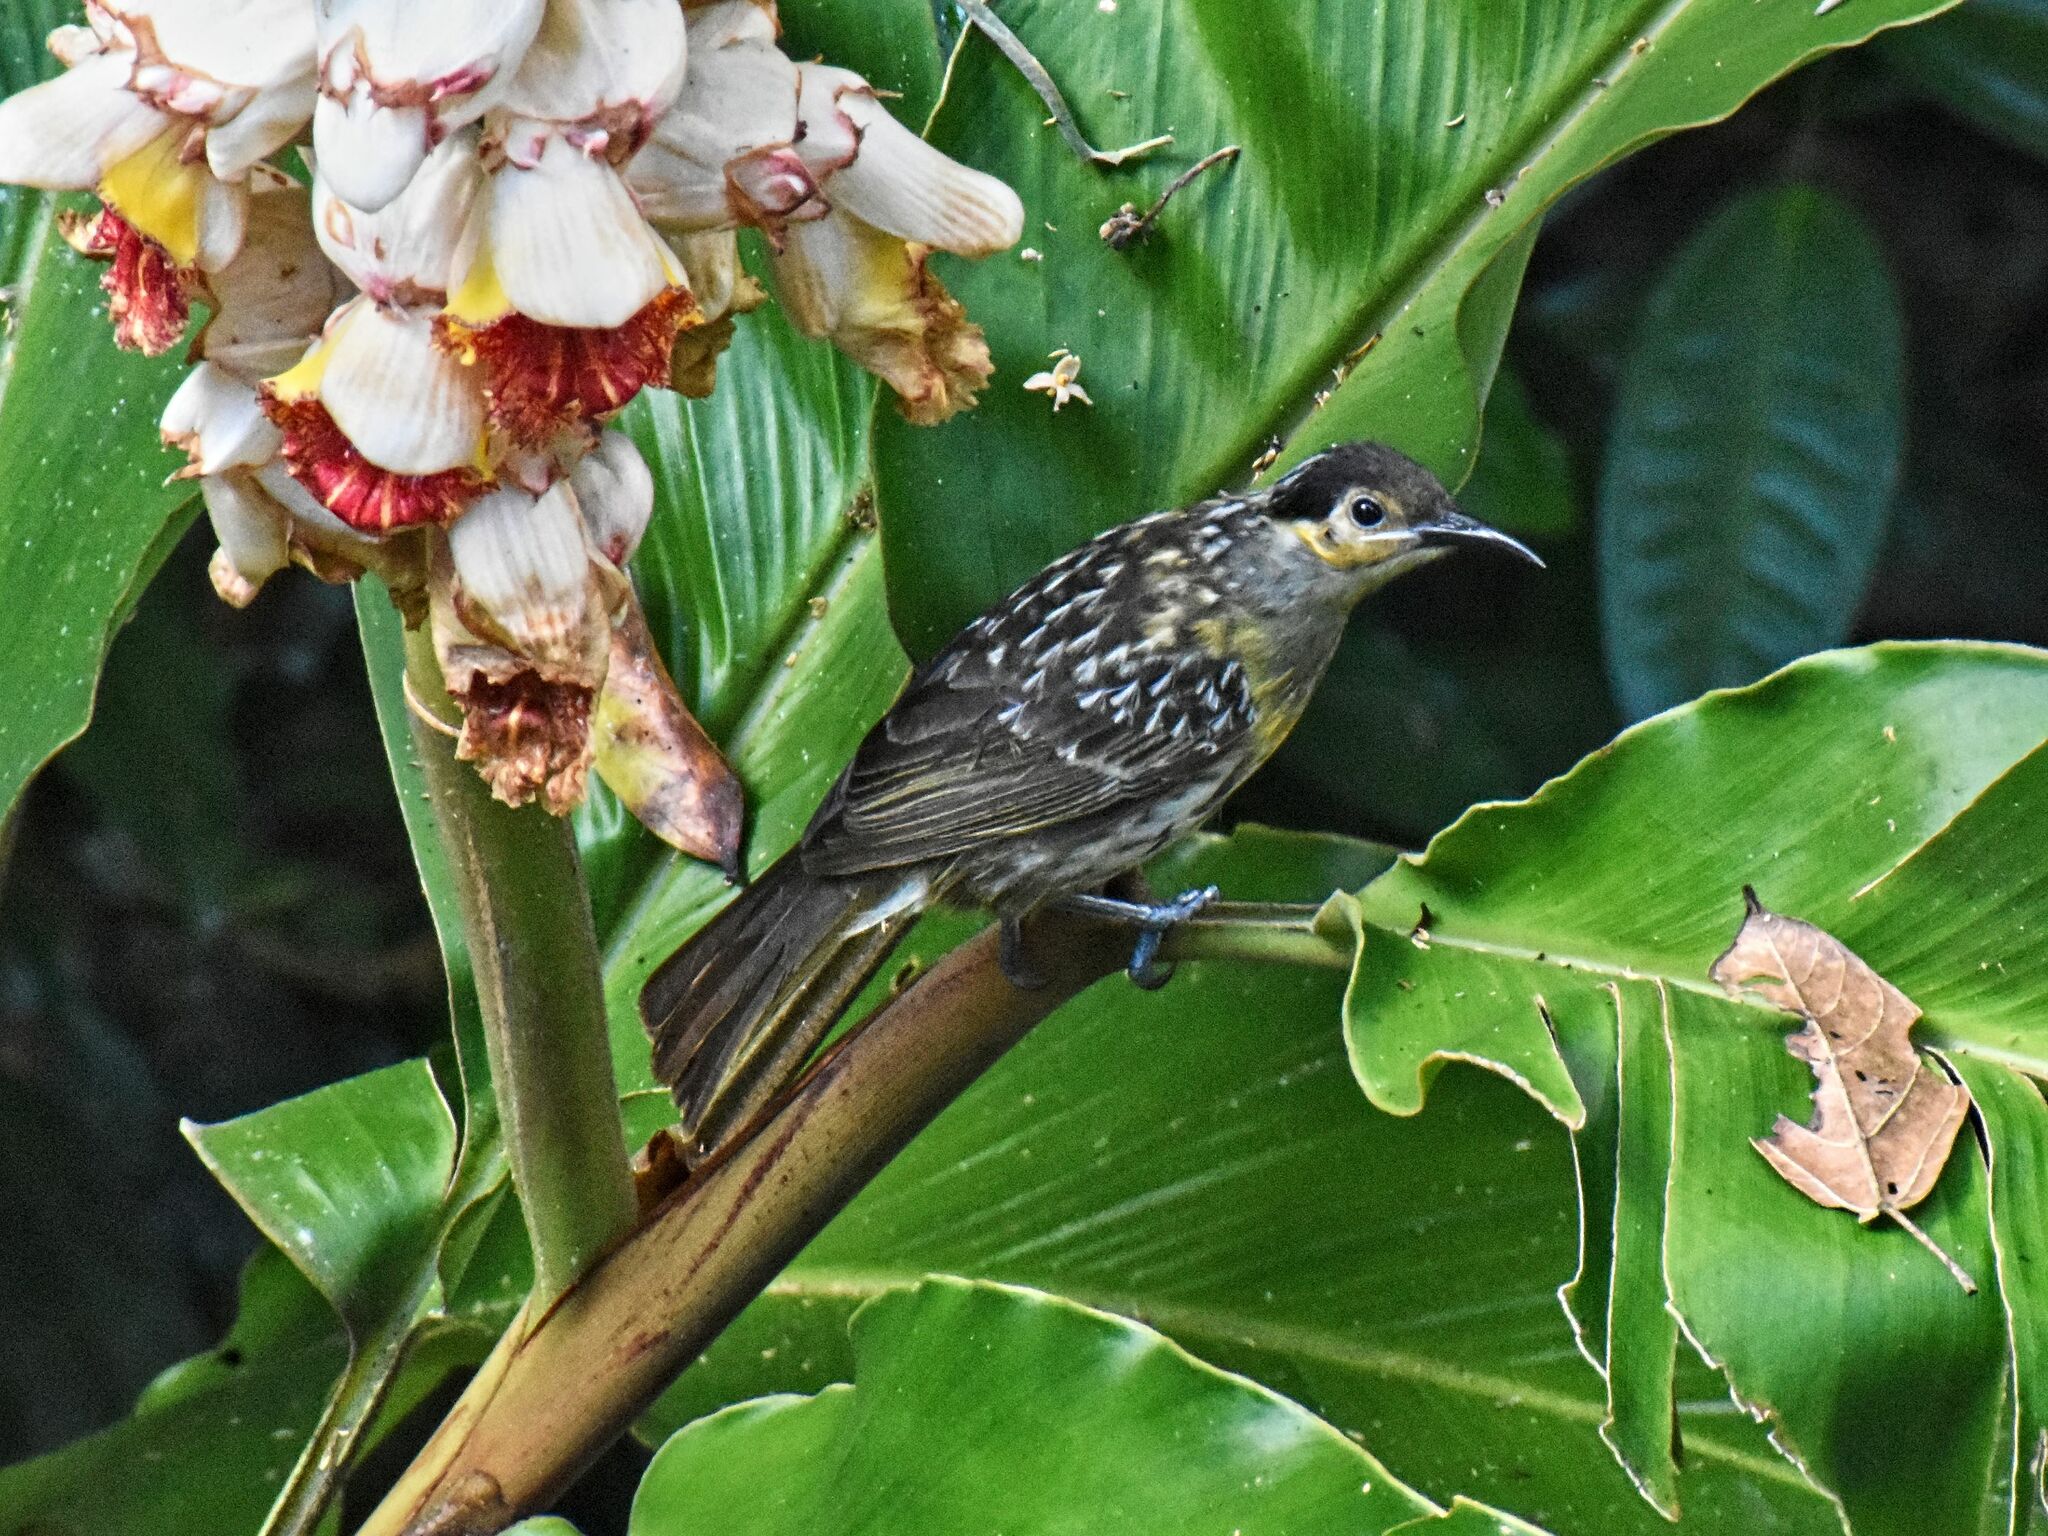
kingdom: Animalia
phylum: Chordata
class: Aves
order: Passeriformes
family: Meliphagidae
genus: Xanthotis
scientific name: Xanthotis macleayanus
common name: Macleay's honeyeater
